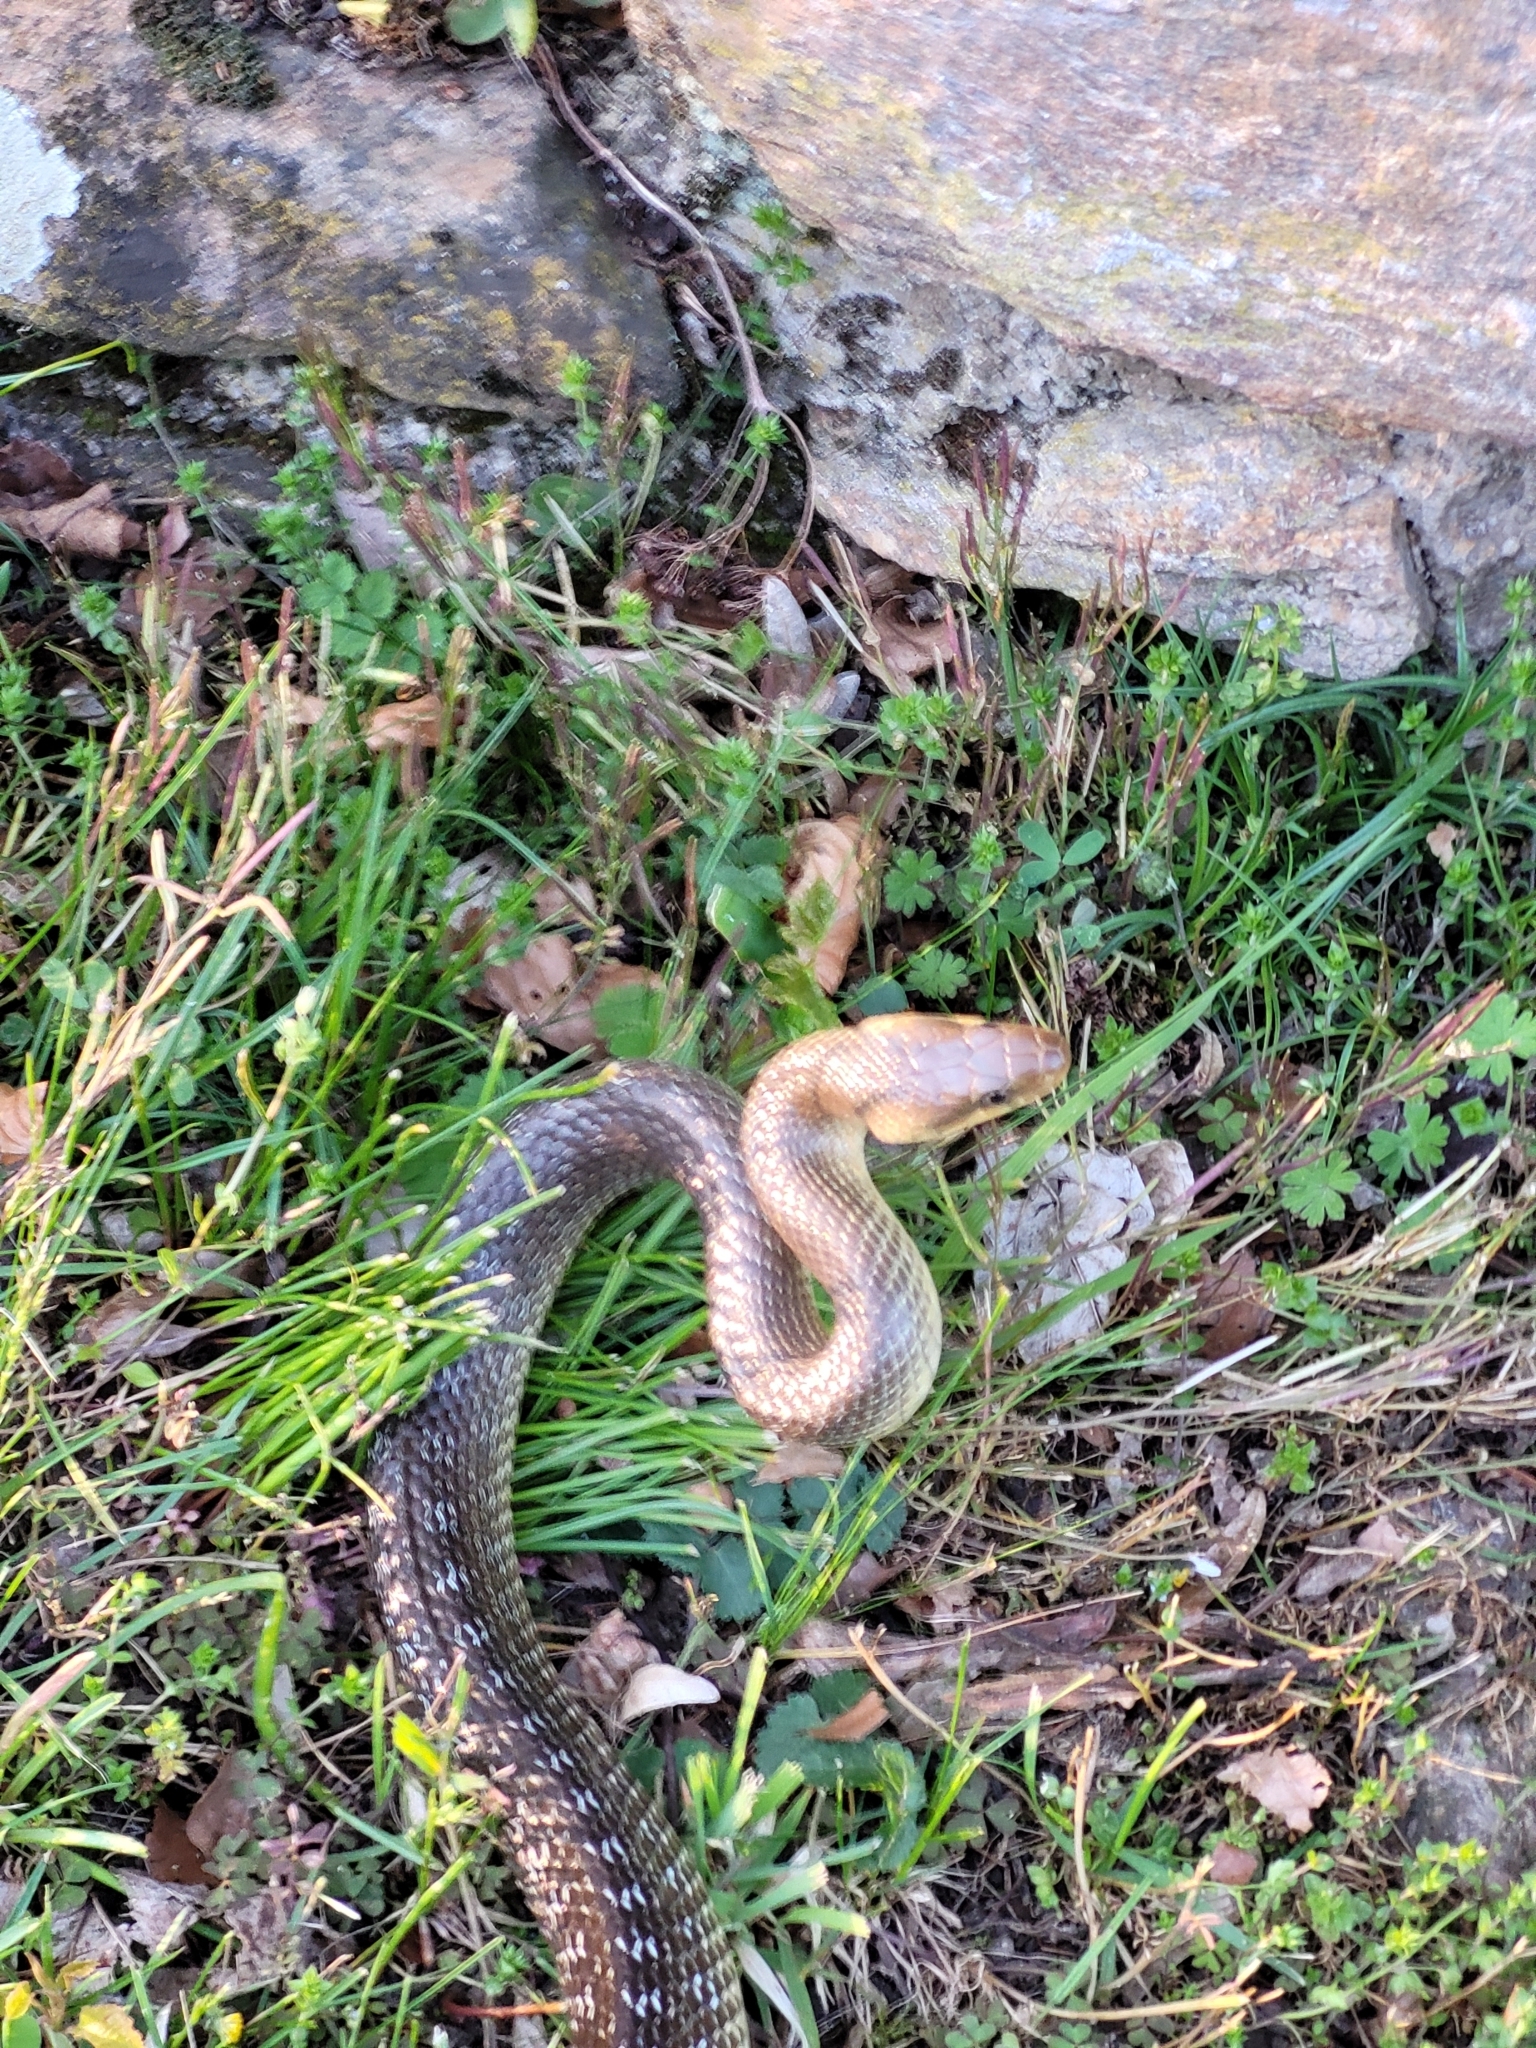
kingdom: Animalia
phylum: Chordata
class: Squamata
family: Colubridae
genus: Zamenis
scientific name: Zamenis longissimus
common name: Aesculapean snake
